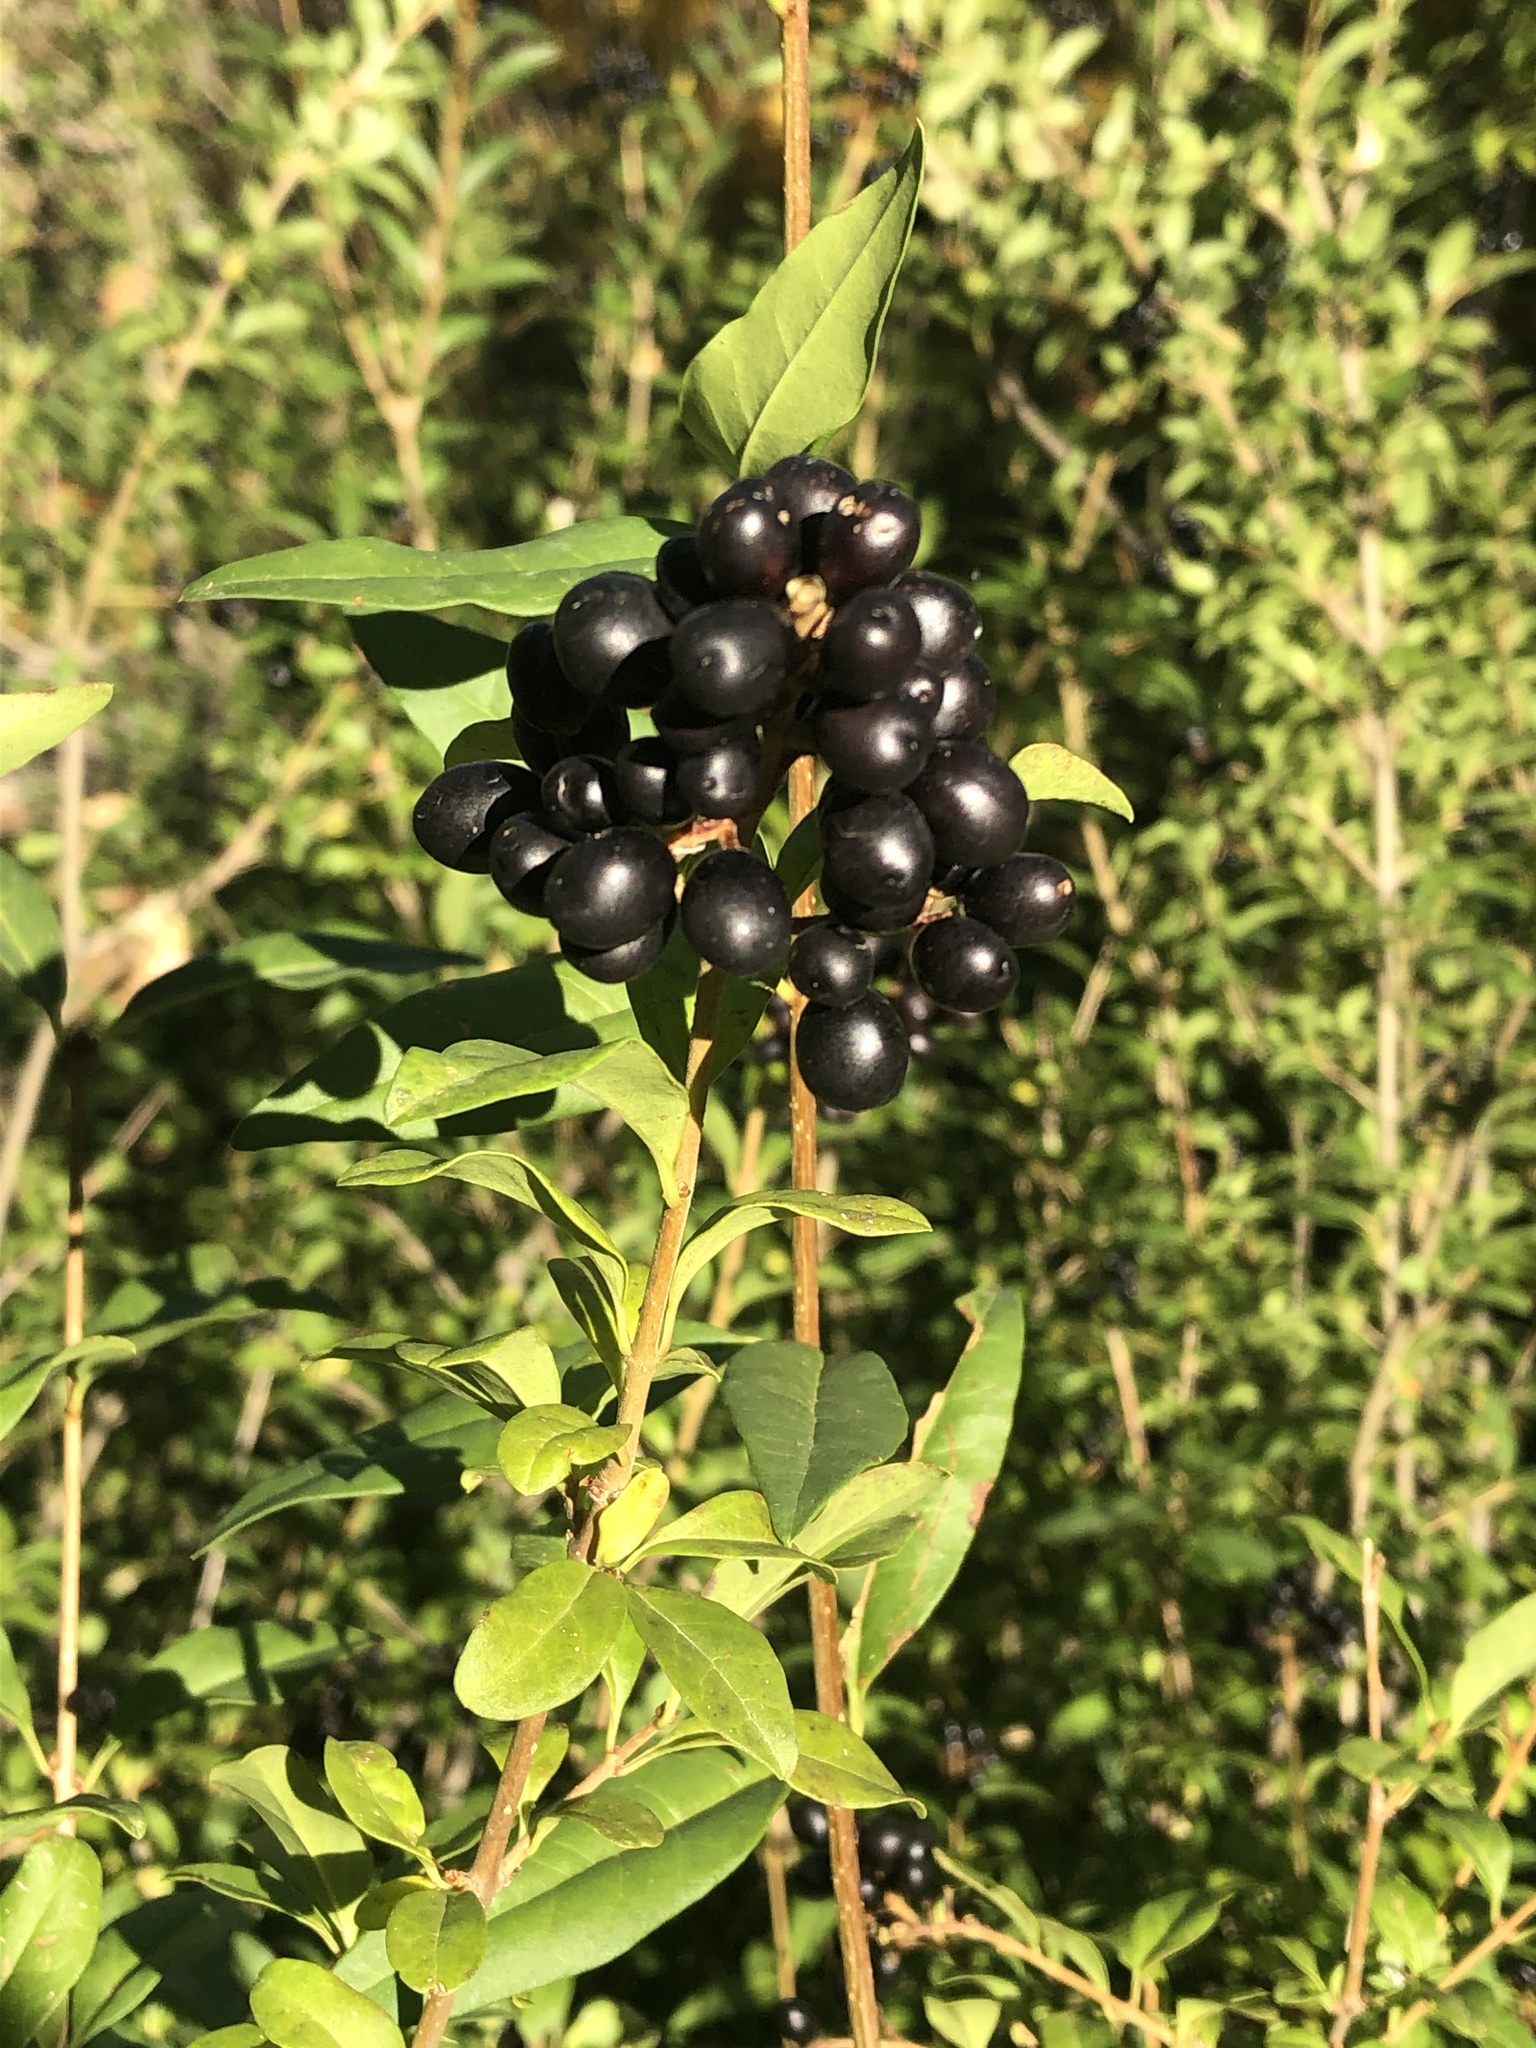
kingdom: Plantae
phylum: Tracheophyta
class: Magnoliopsida
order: Lamiales
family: Oleaceae
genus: Ligustrum
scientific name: Ligustrum vulgare
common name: Wild privet
